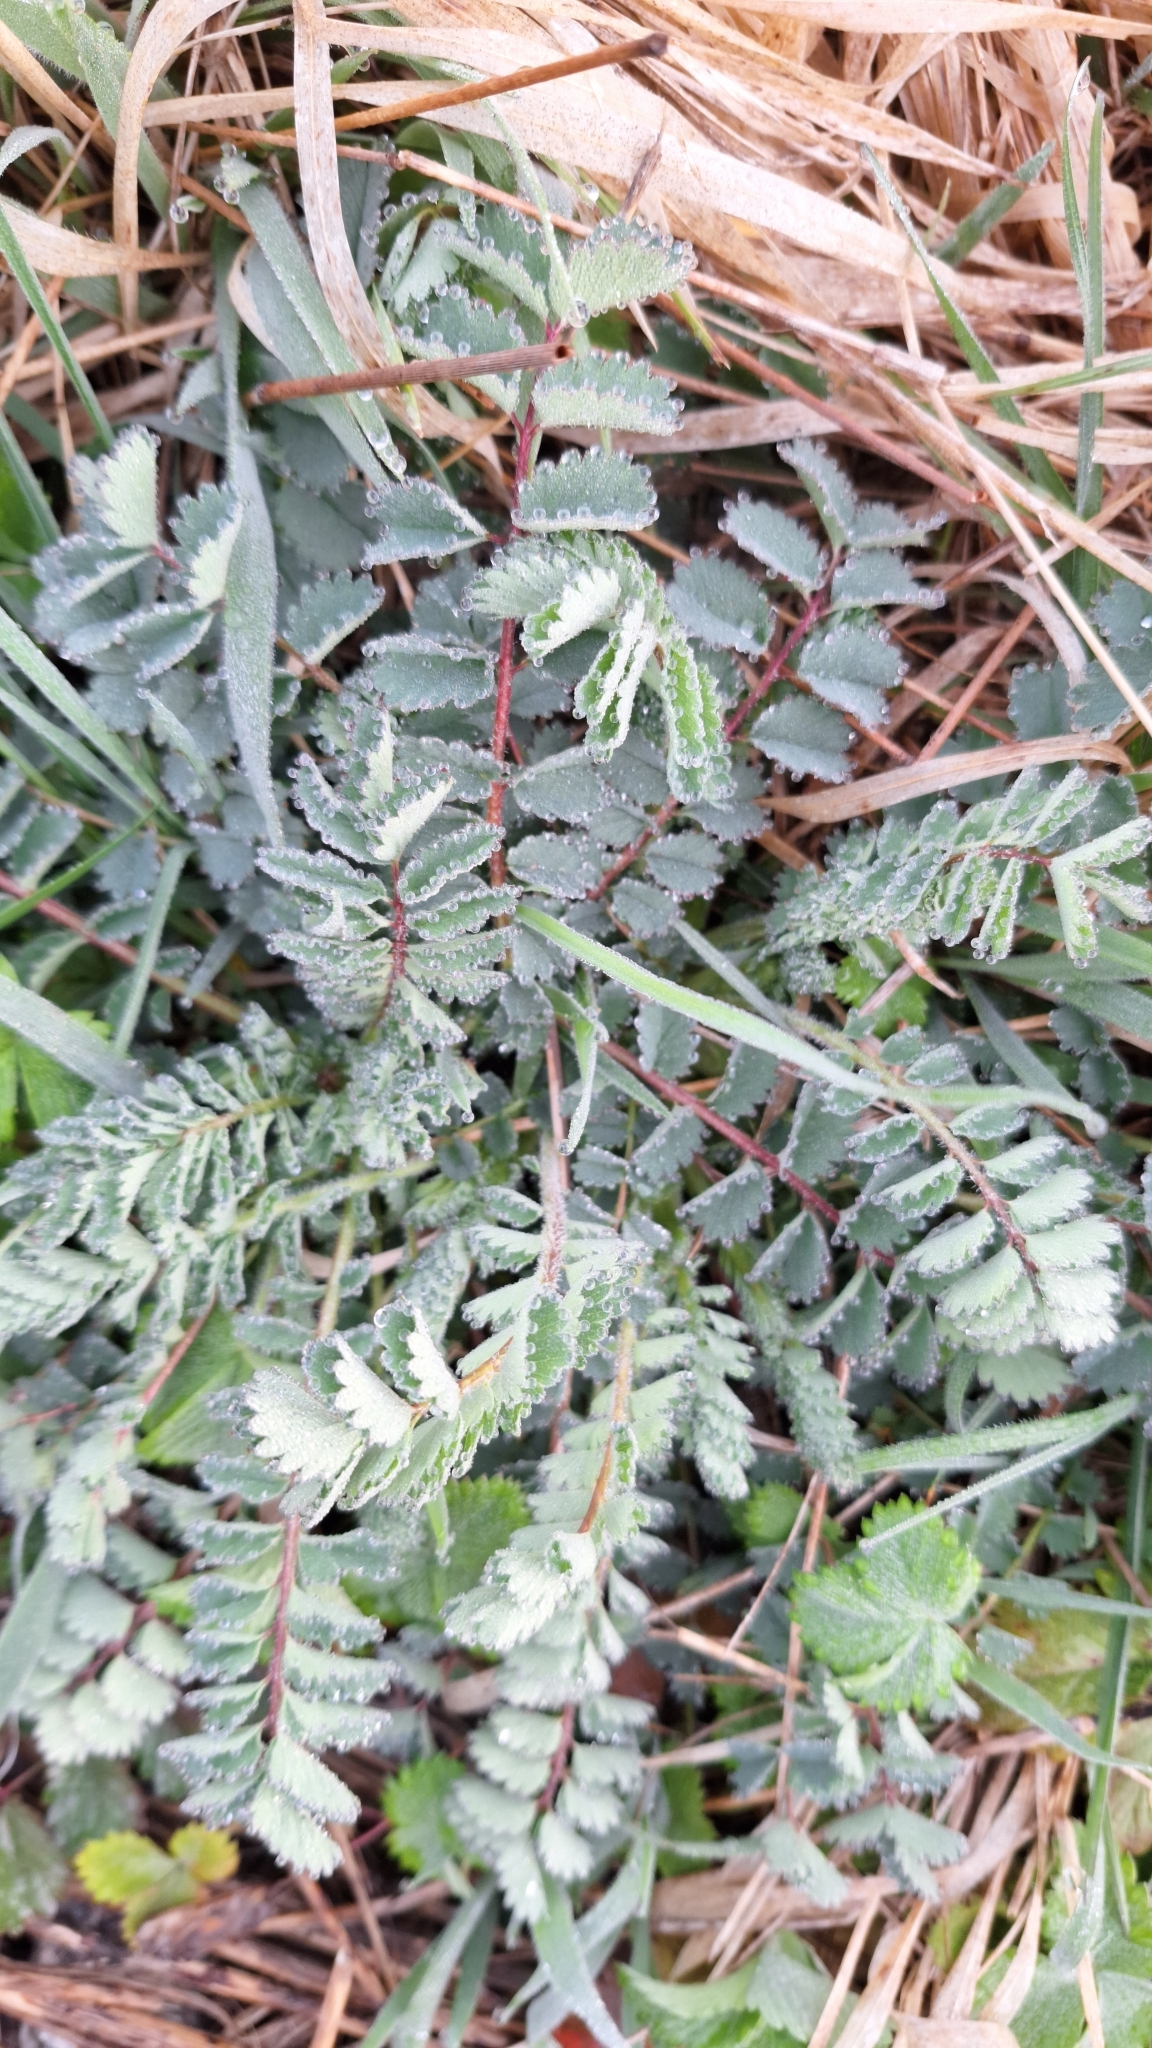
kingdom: Plantae
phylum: Tracheophyta
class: Magnoliopsida
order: Rosales
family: Rosaceae
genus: Poterium
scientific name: Poterium sanguisorba
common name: Salad burnet
